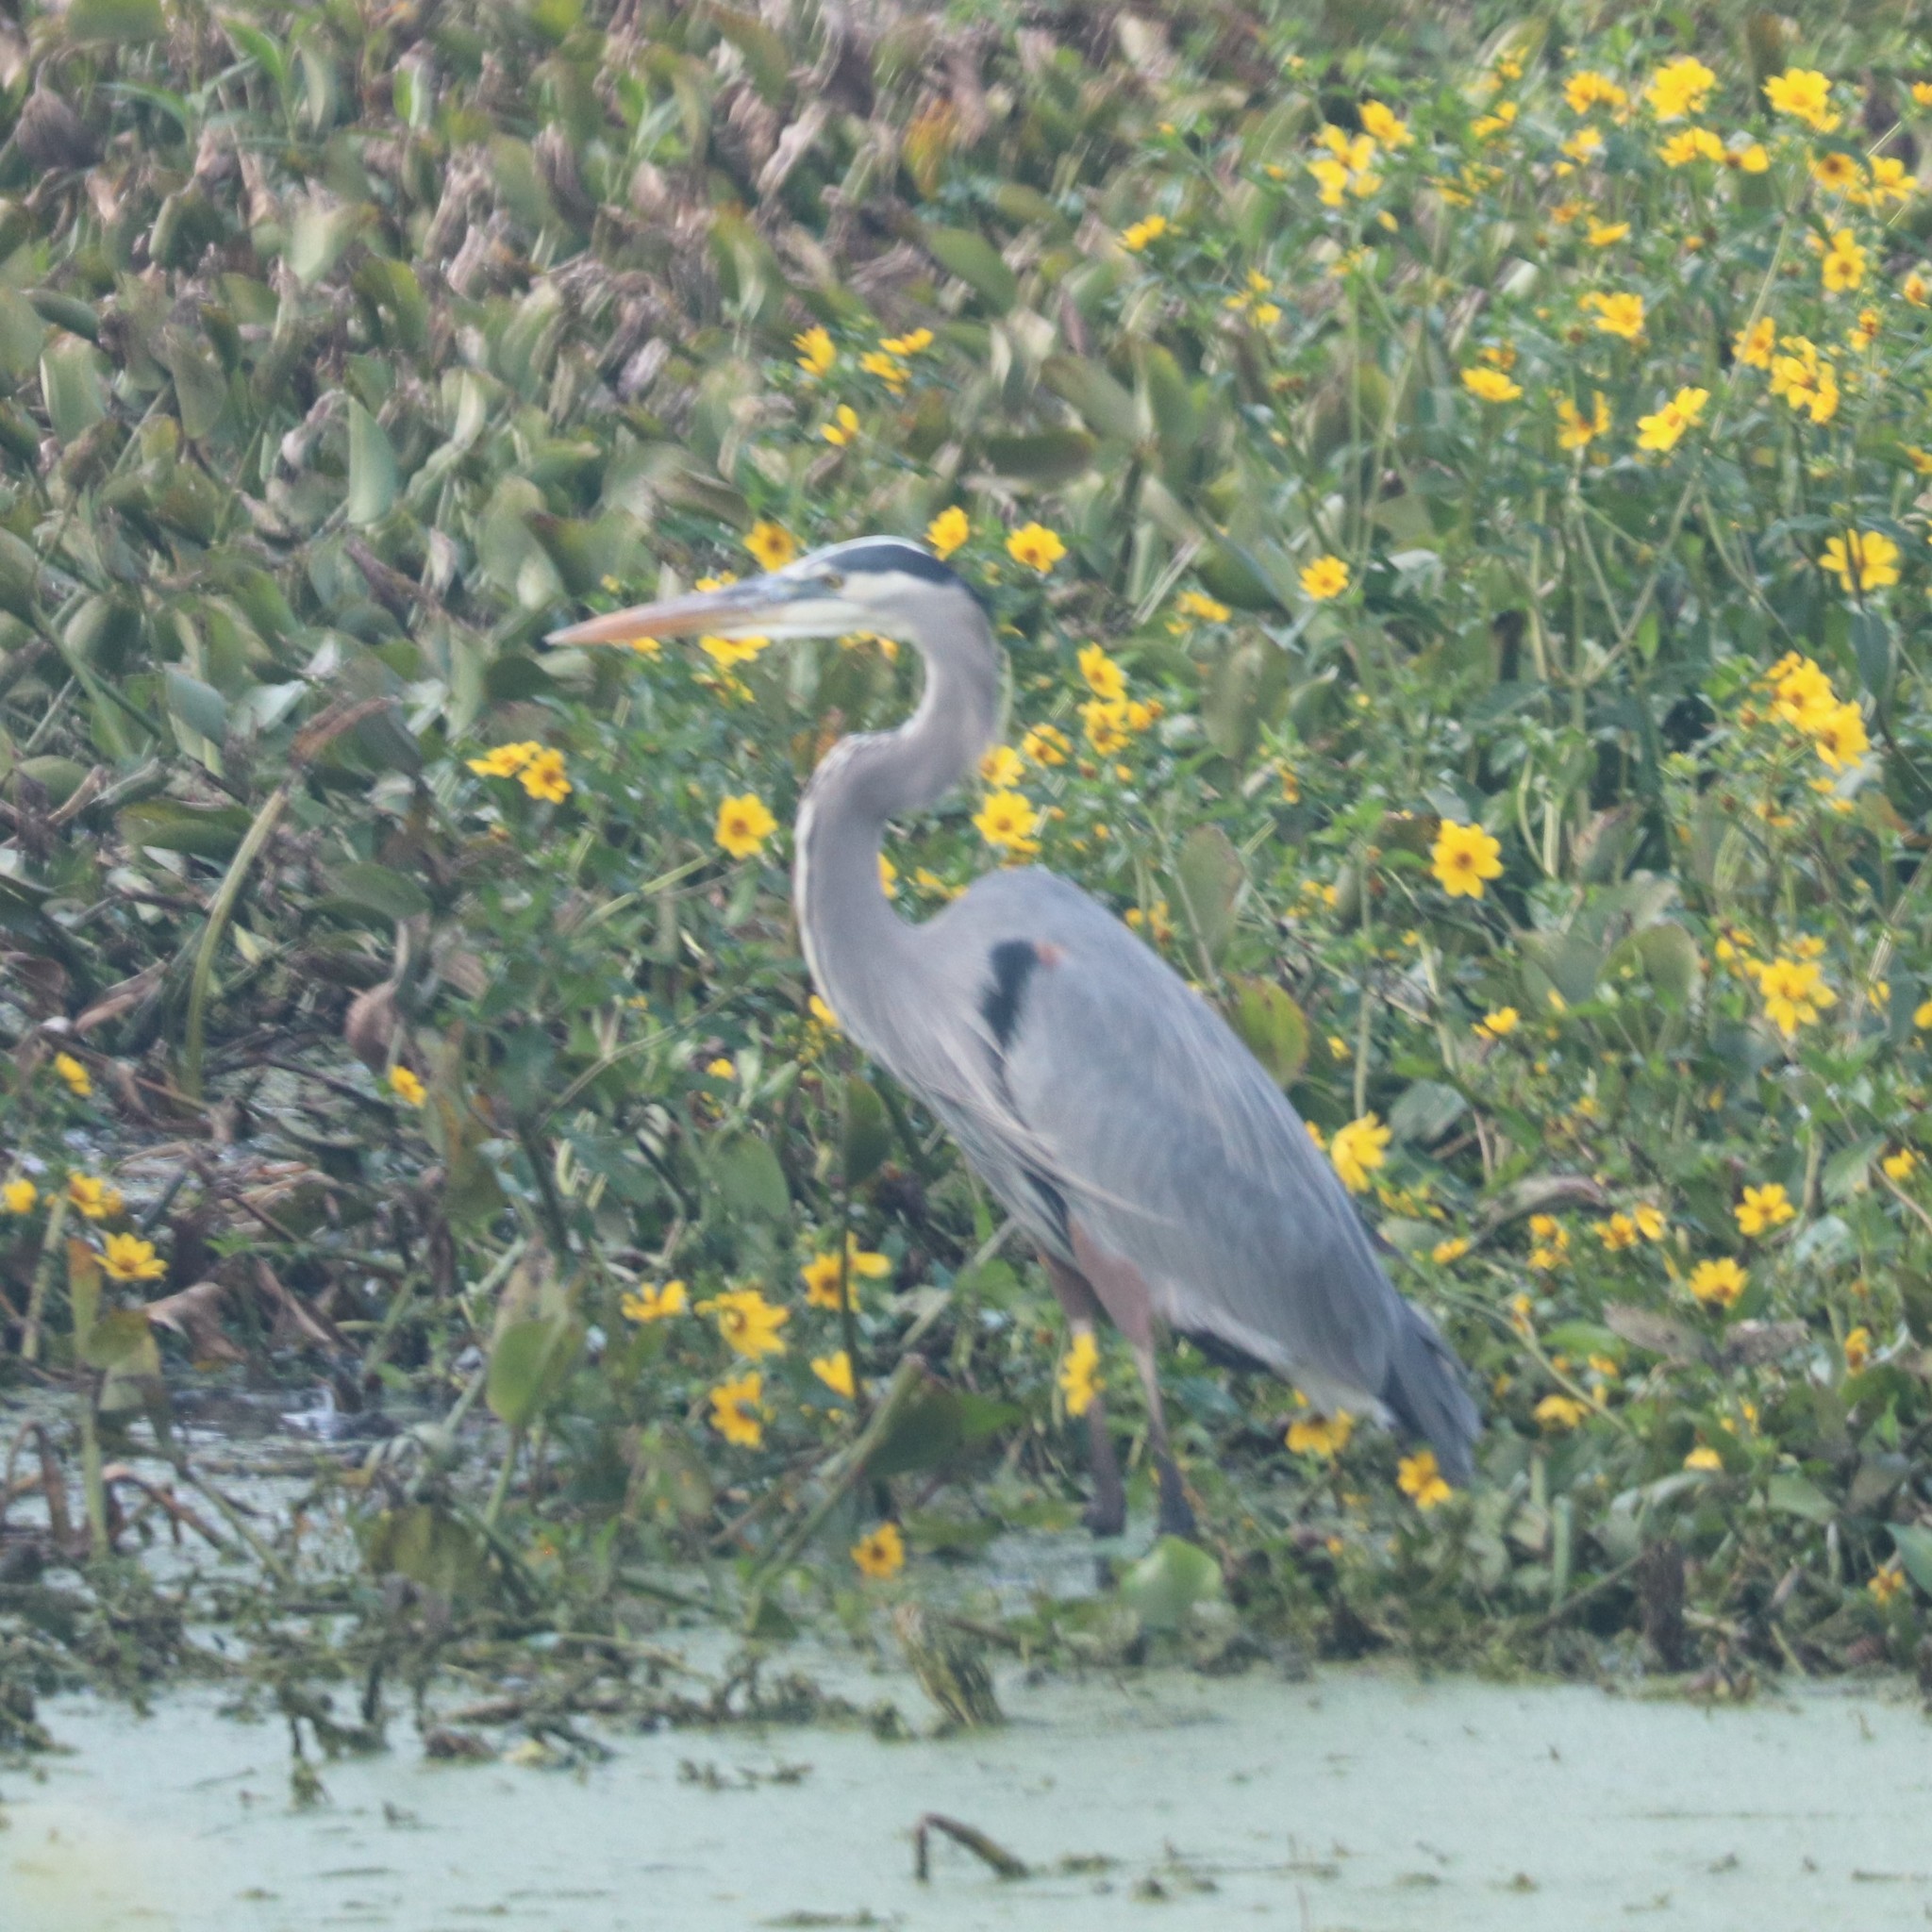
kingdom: Animalia
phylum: Chordata
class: Aves
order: Pelecaniformes
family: Ardeidae
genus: Ardea
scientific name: Ardea herodias
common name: Great blue heron
